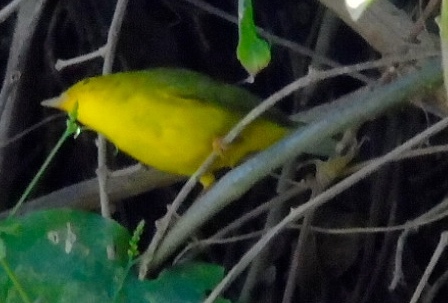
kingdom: Animalia
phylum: Chordata
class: Aves
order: Passeriformes
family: Parulidae
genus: Cardellina
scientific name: Cardellina pusilla
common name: Wilson's warbler
